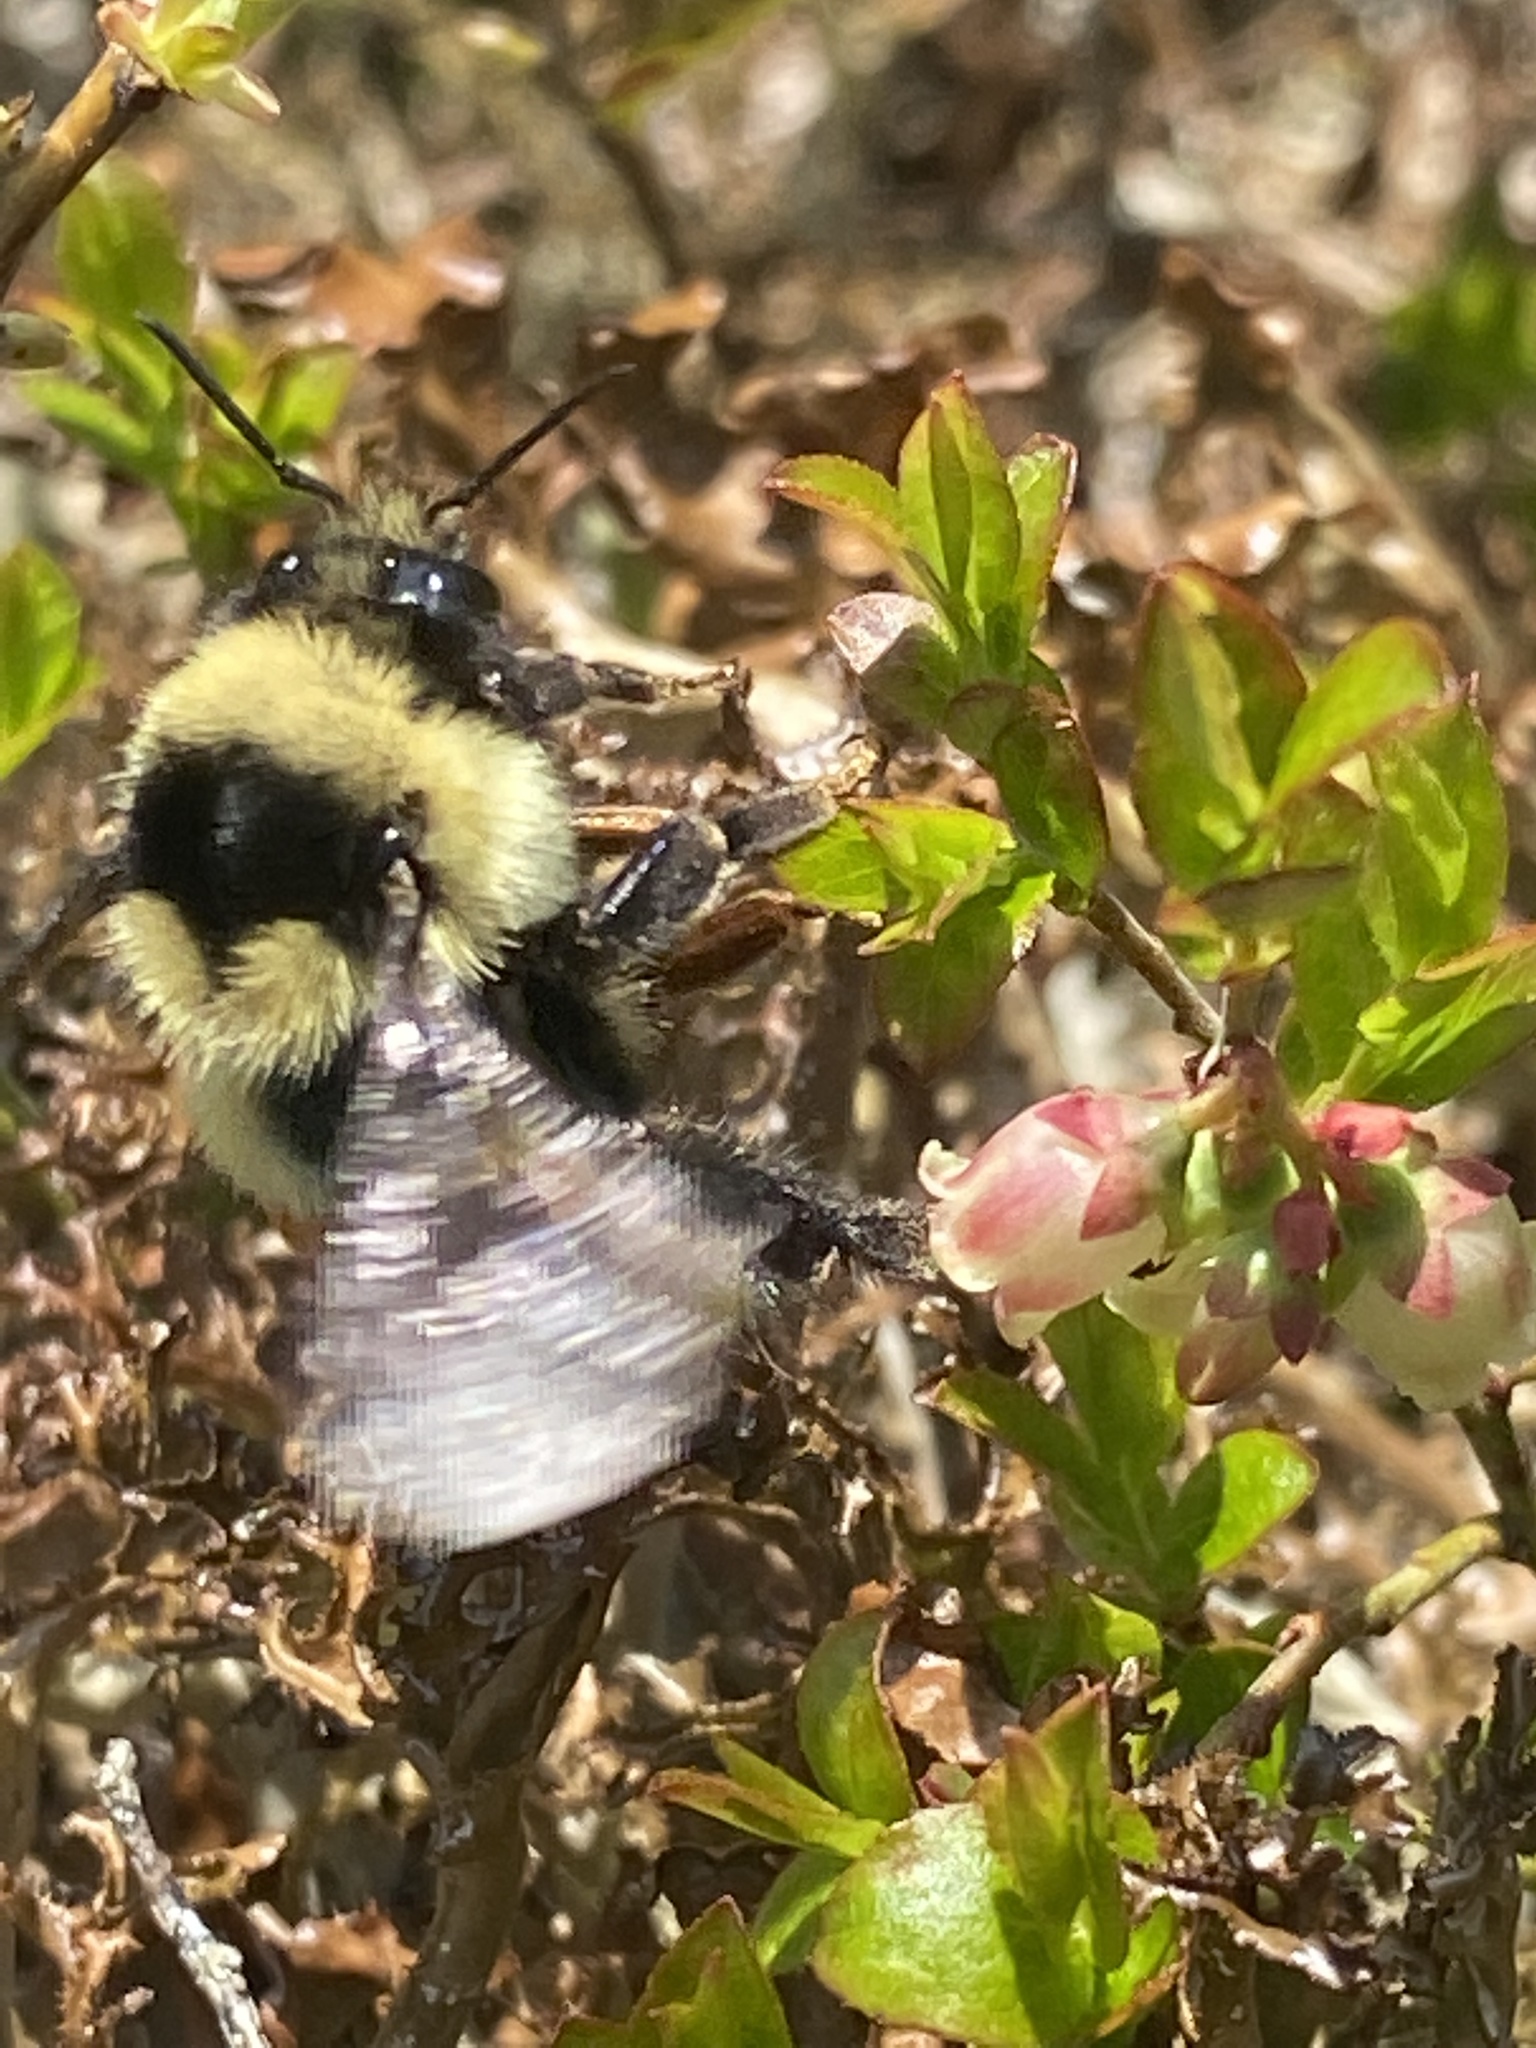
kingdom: Animalia
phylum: Arthropoda
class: Insecta
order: Hymenoptera
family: Apidae
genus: Bombus
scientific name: Bombus ternarius
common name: Tri-colored bumble bee
